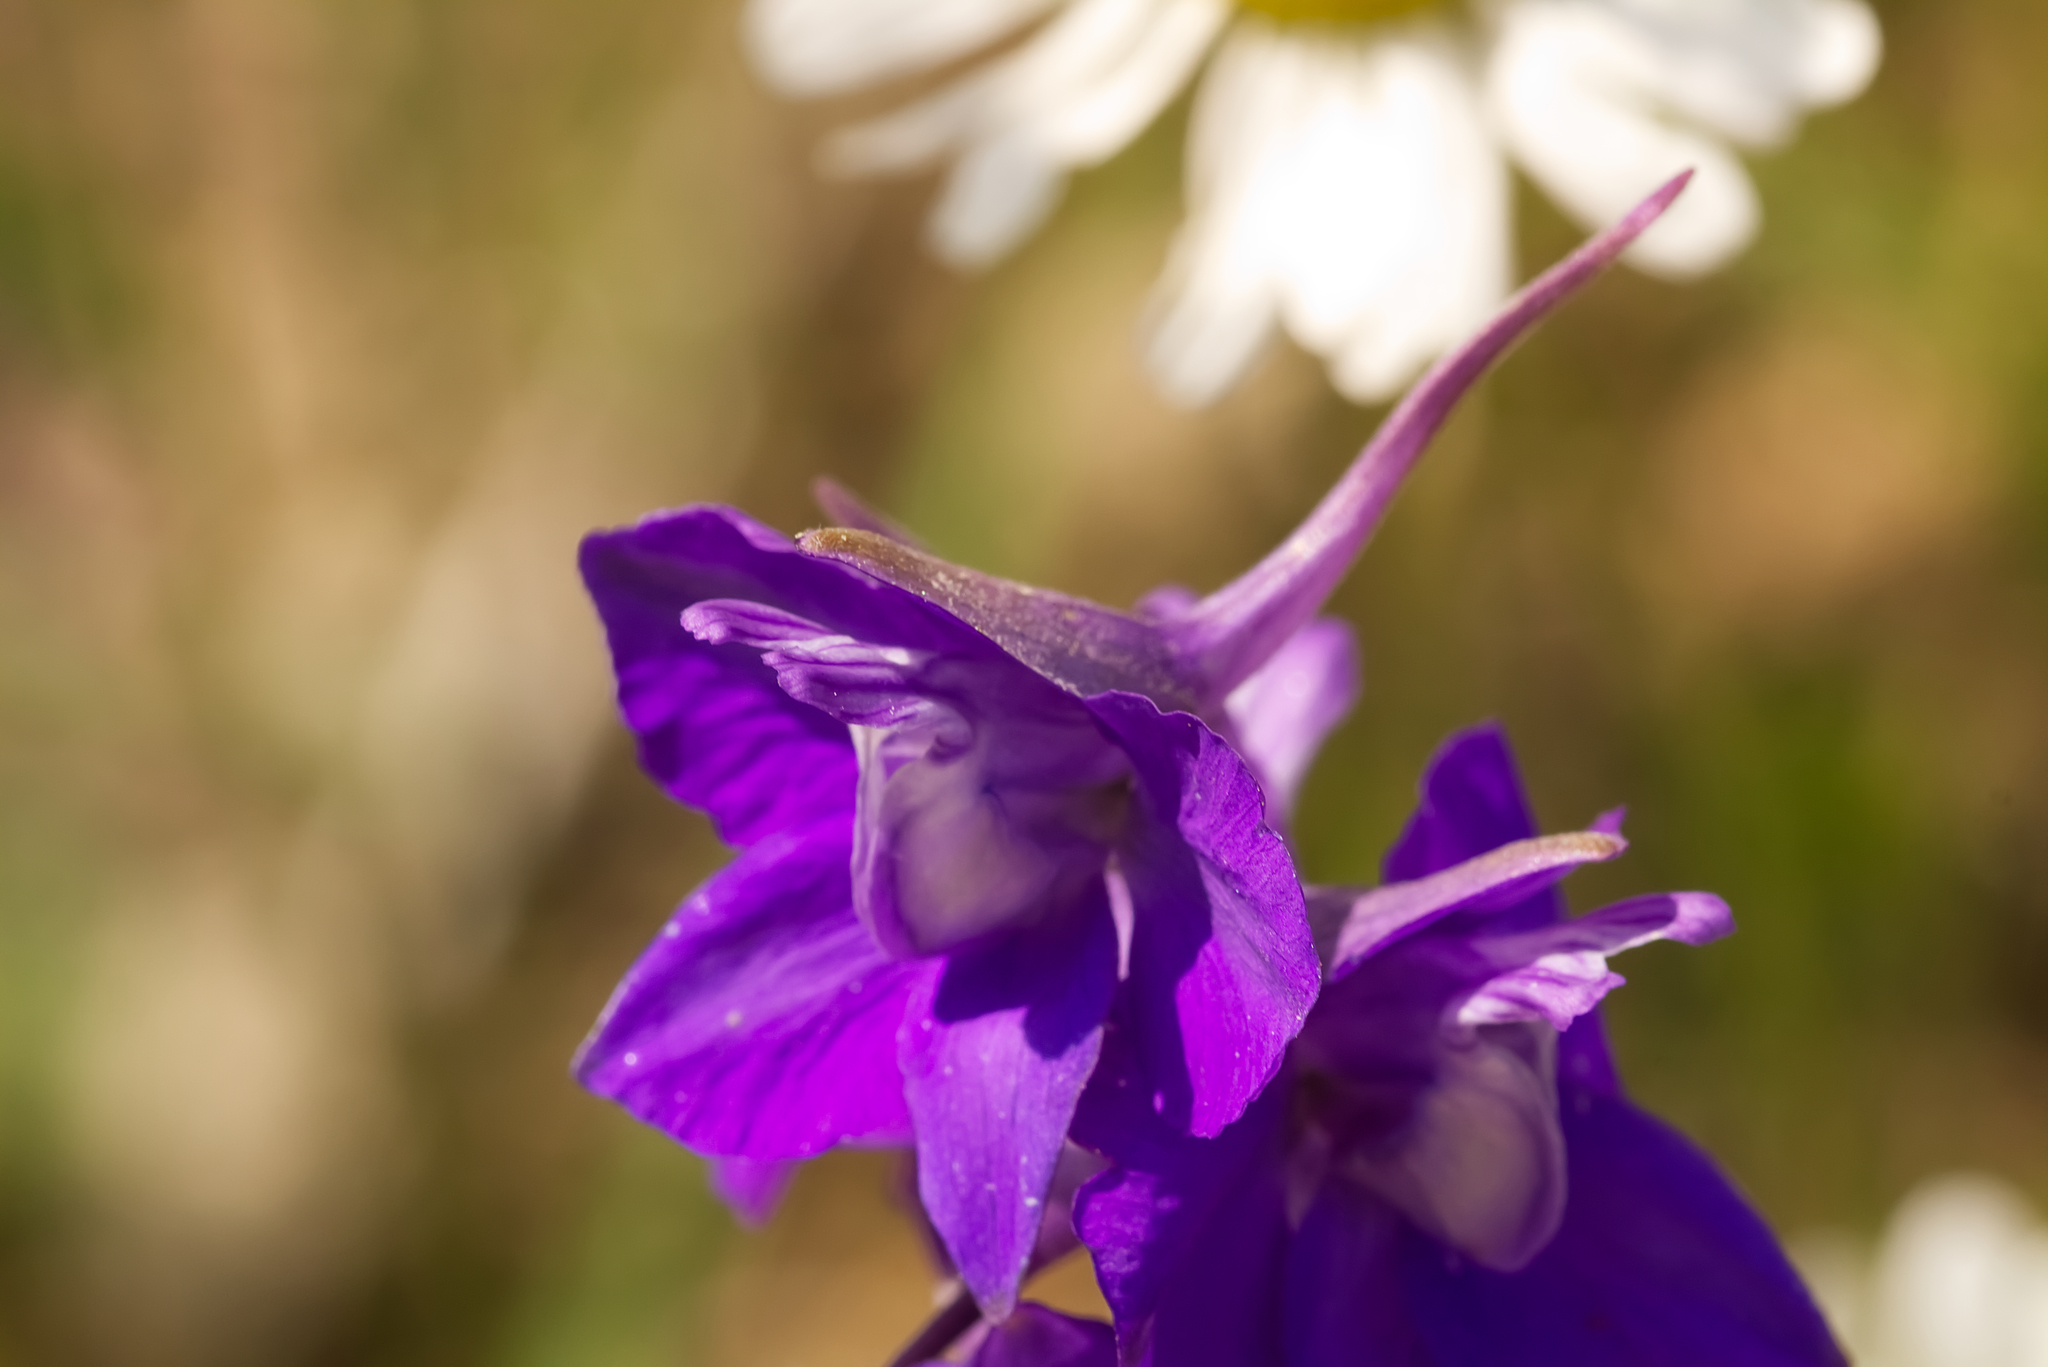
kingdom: Plantae
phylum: Tracheophyta
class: Magnoliopsida
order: Ranunculales
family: Ranunculaceae
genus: Delphinium
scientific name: Delphinium hispanicum
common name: Oriental knight's-spur
